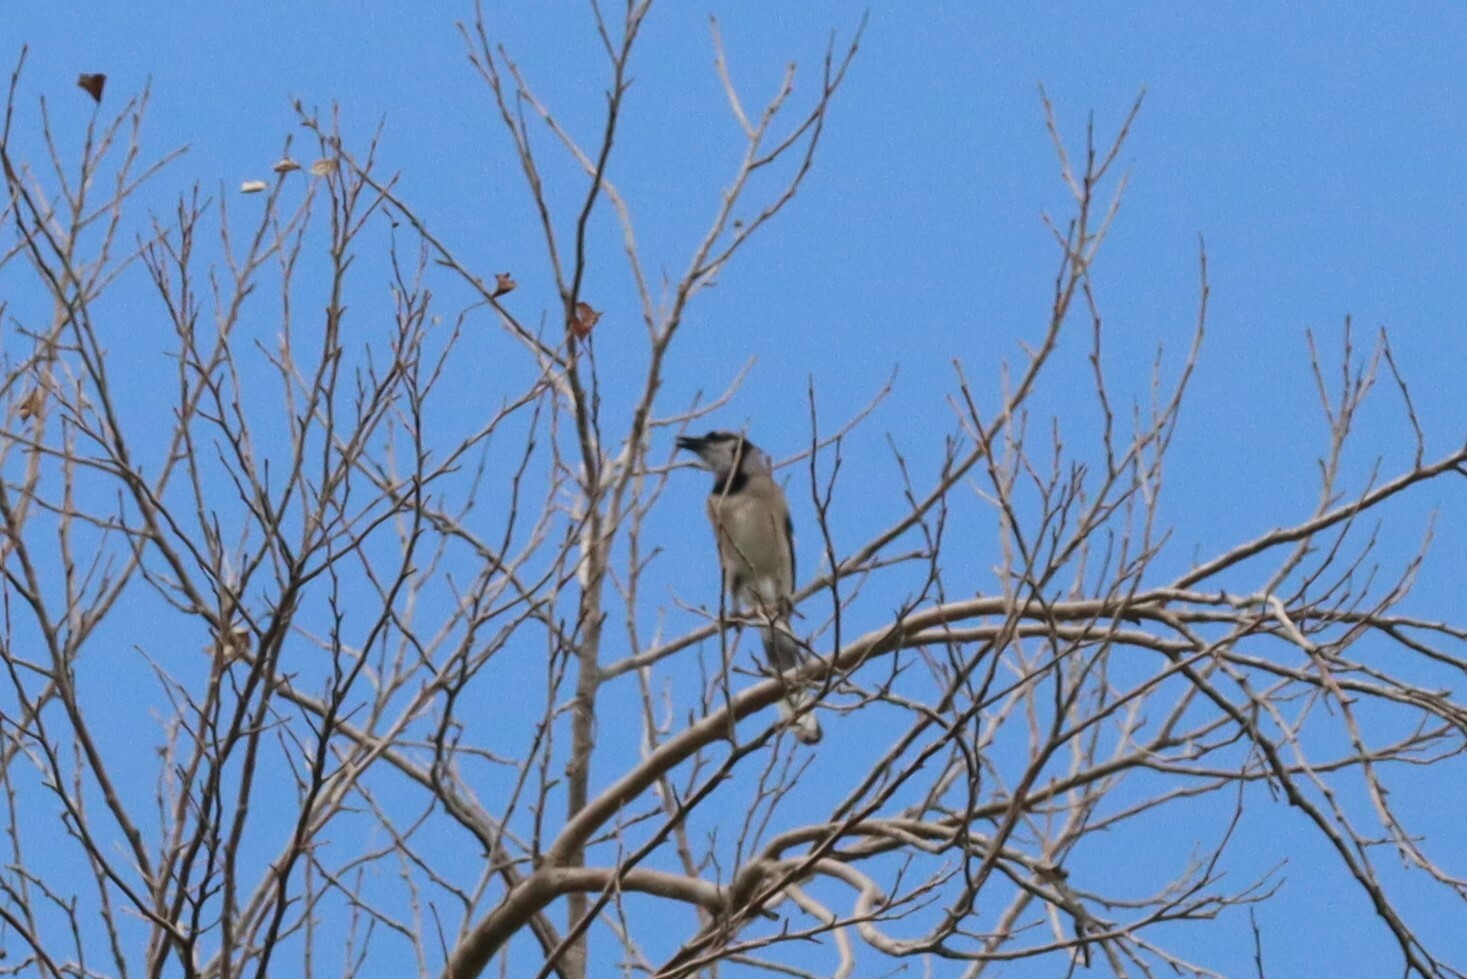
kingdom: Animalia
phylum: Chordata
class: Aves
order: Passeriformes
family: Corvidae
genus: Cyanocitta
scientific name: Cyanocitta cristata
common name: Blue jay
